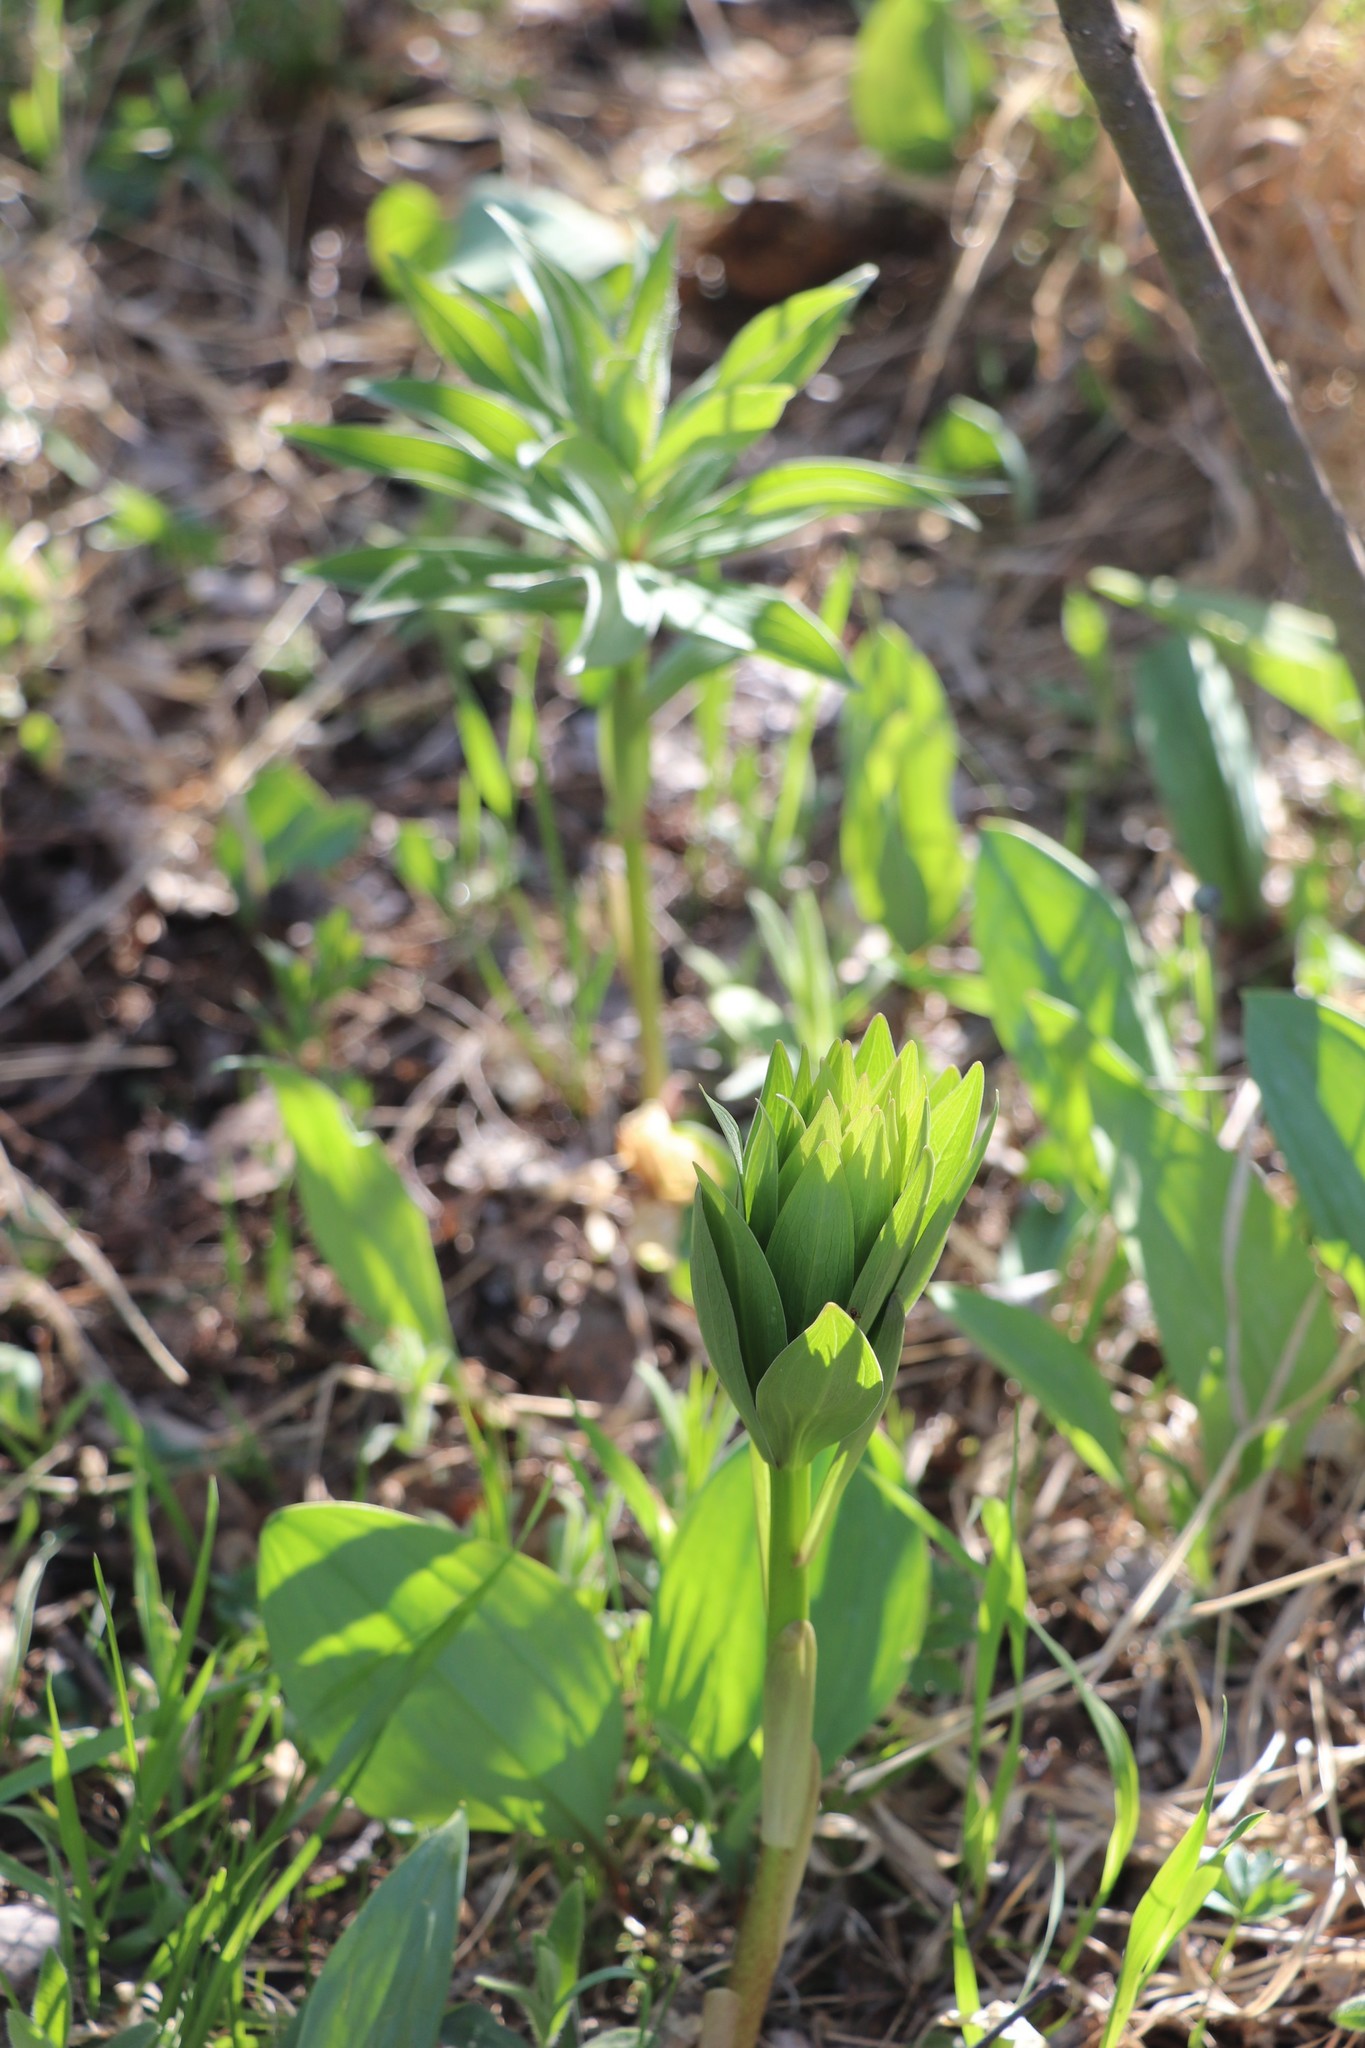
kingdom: Plantae
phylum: Tracheophyta
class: Liliopsida
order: Liliales
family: Liliaceae
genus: Lilium
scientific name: Lilium martagon
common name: Martagon lily
